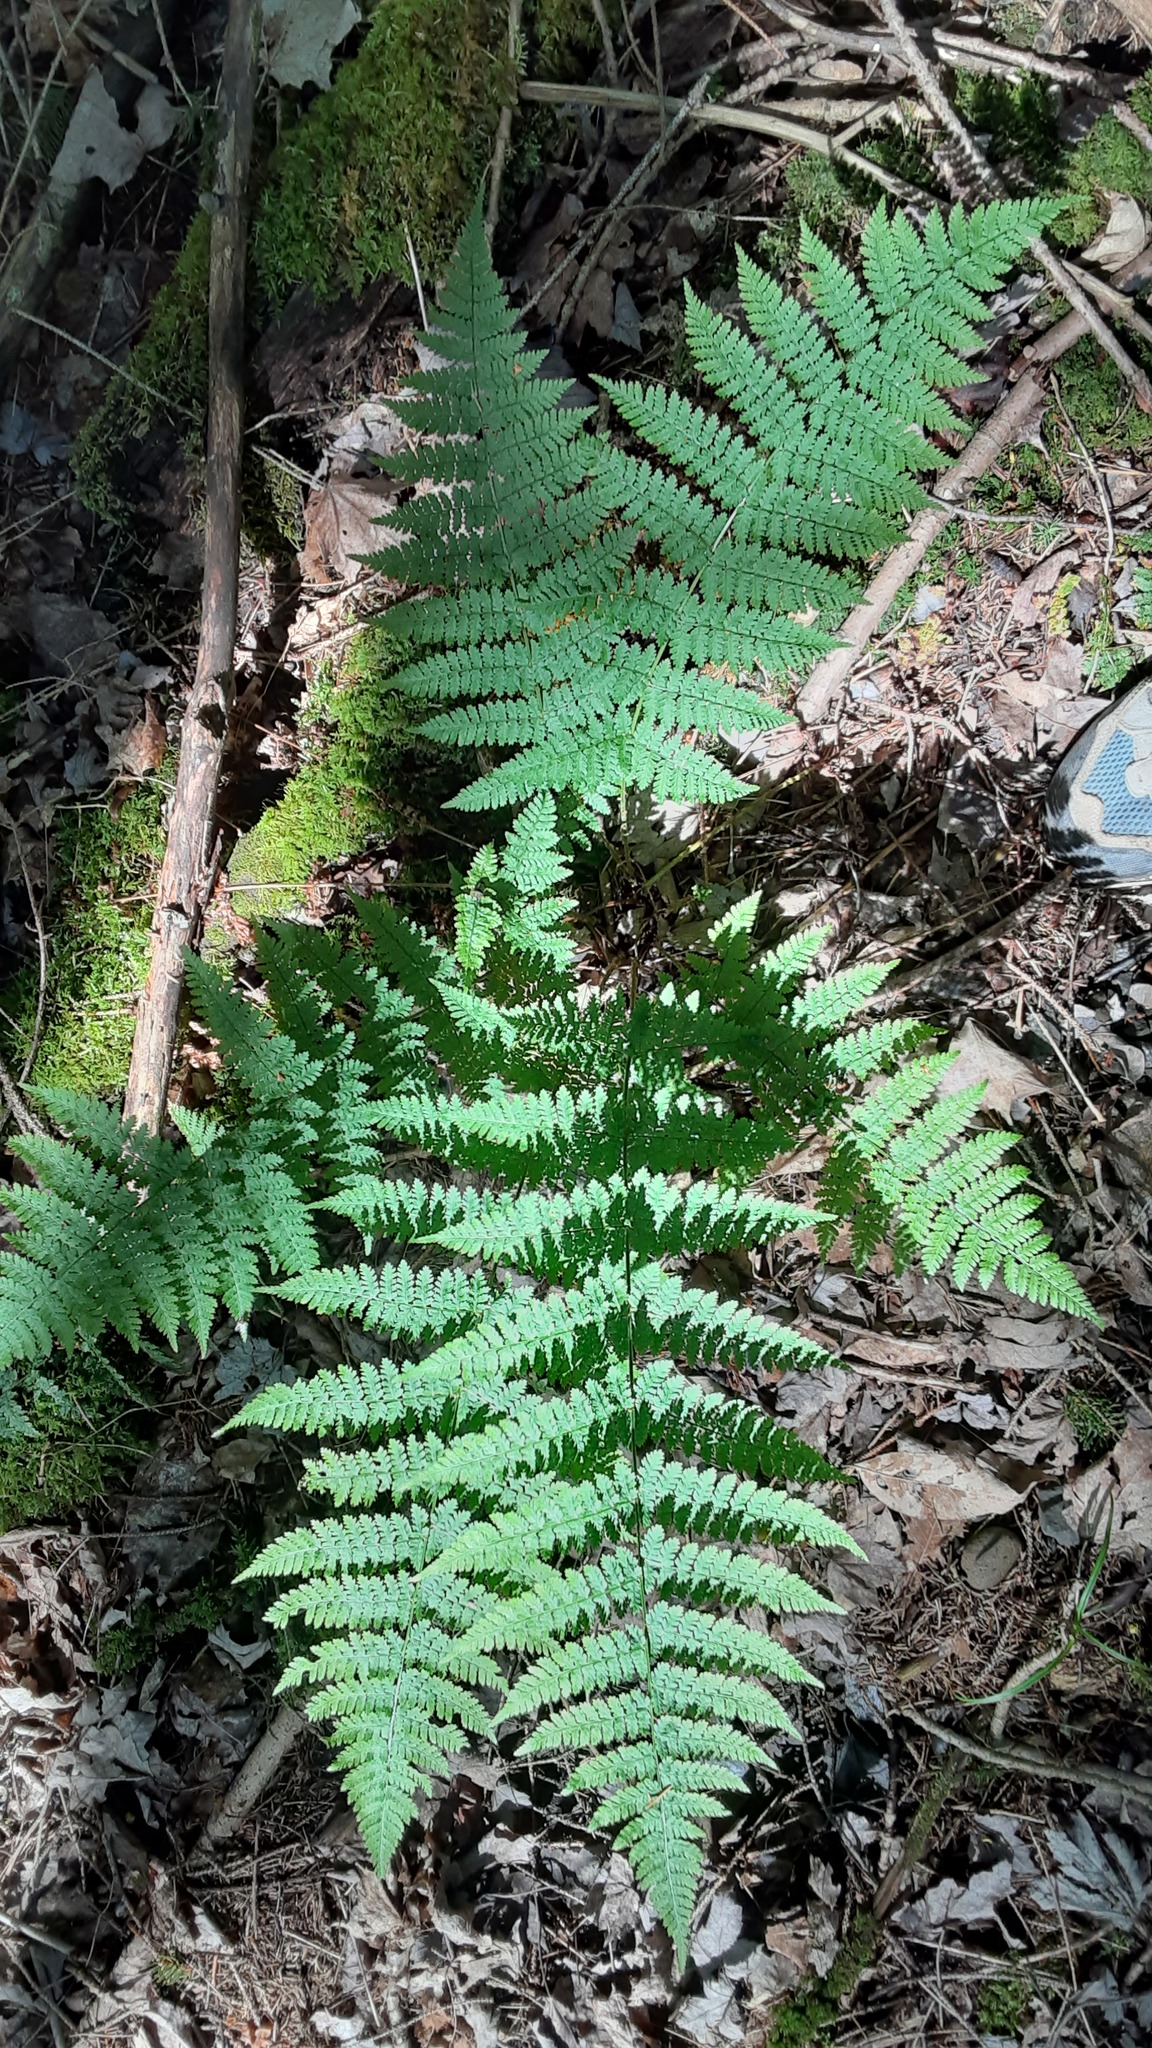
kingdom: Plantae
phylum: Tracheophyta
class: Polypodiopsida
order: Polypodiales
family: Dryopteridaceae
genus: Dryopteris
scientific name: Dryopteris intermedia
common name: Evergreen wood fern
